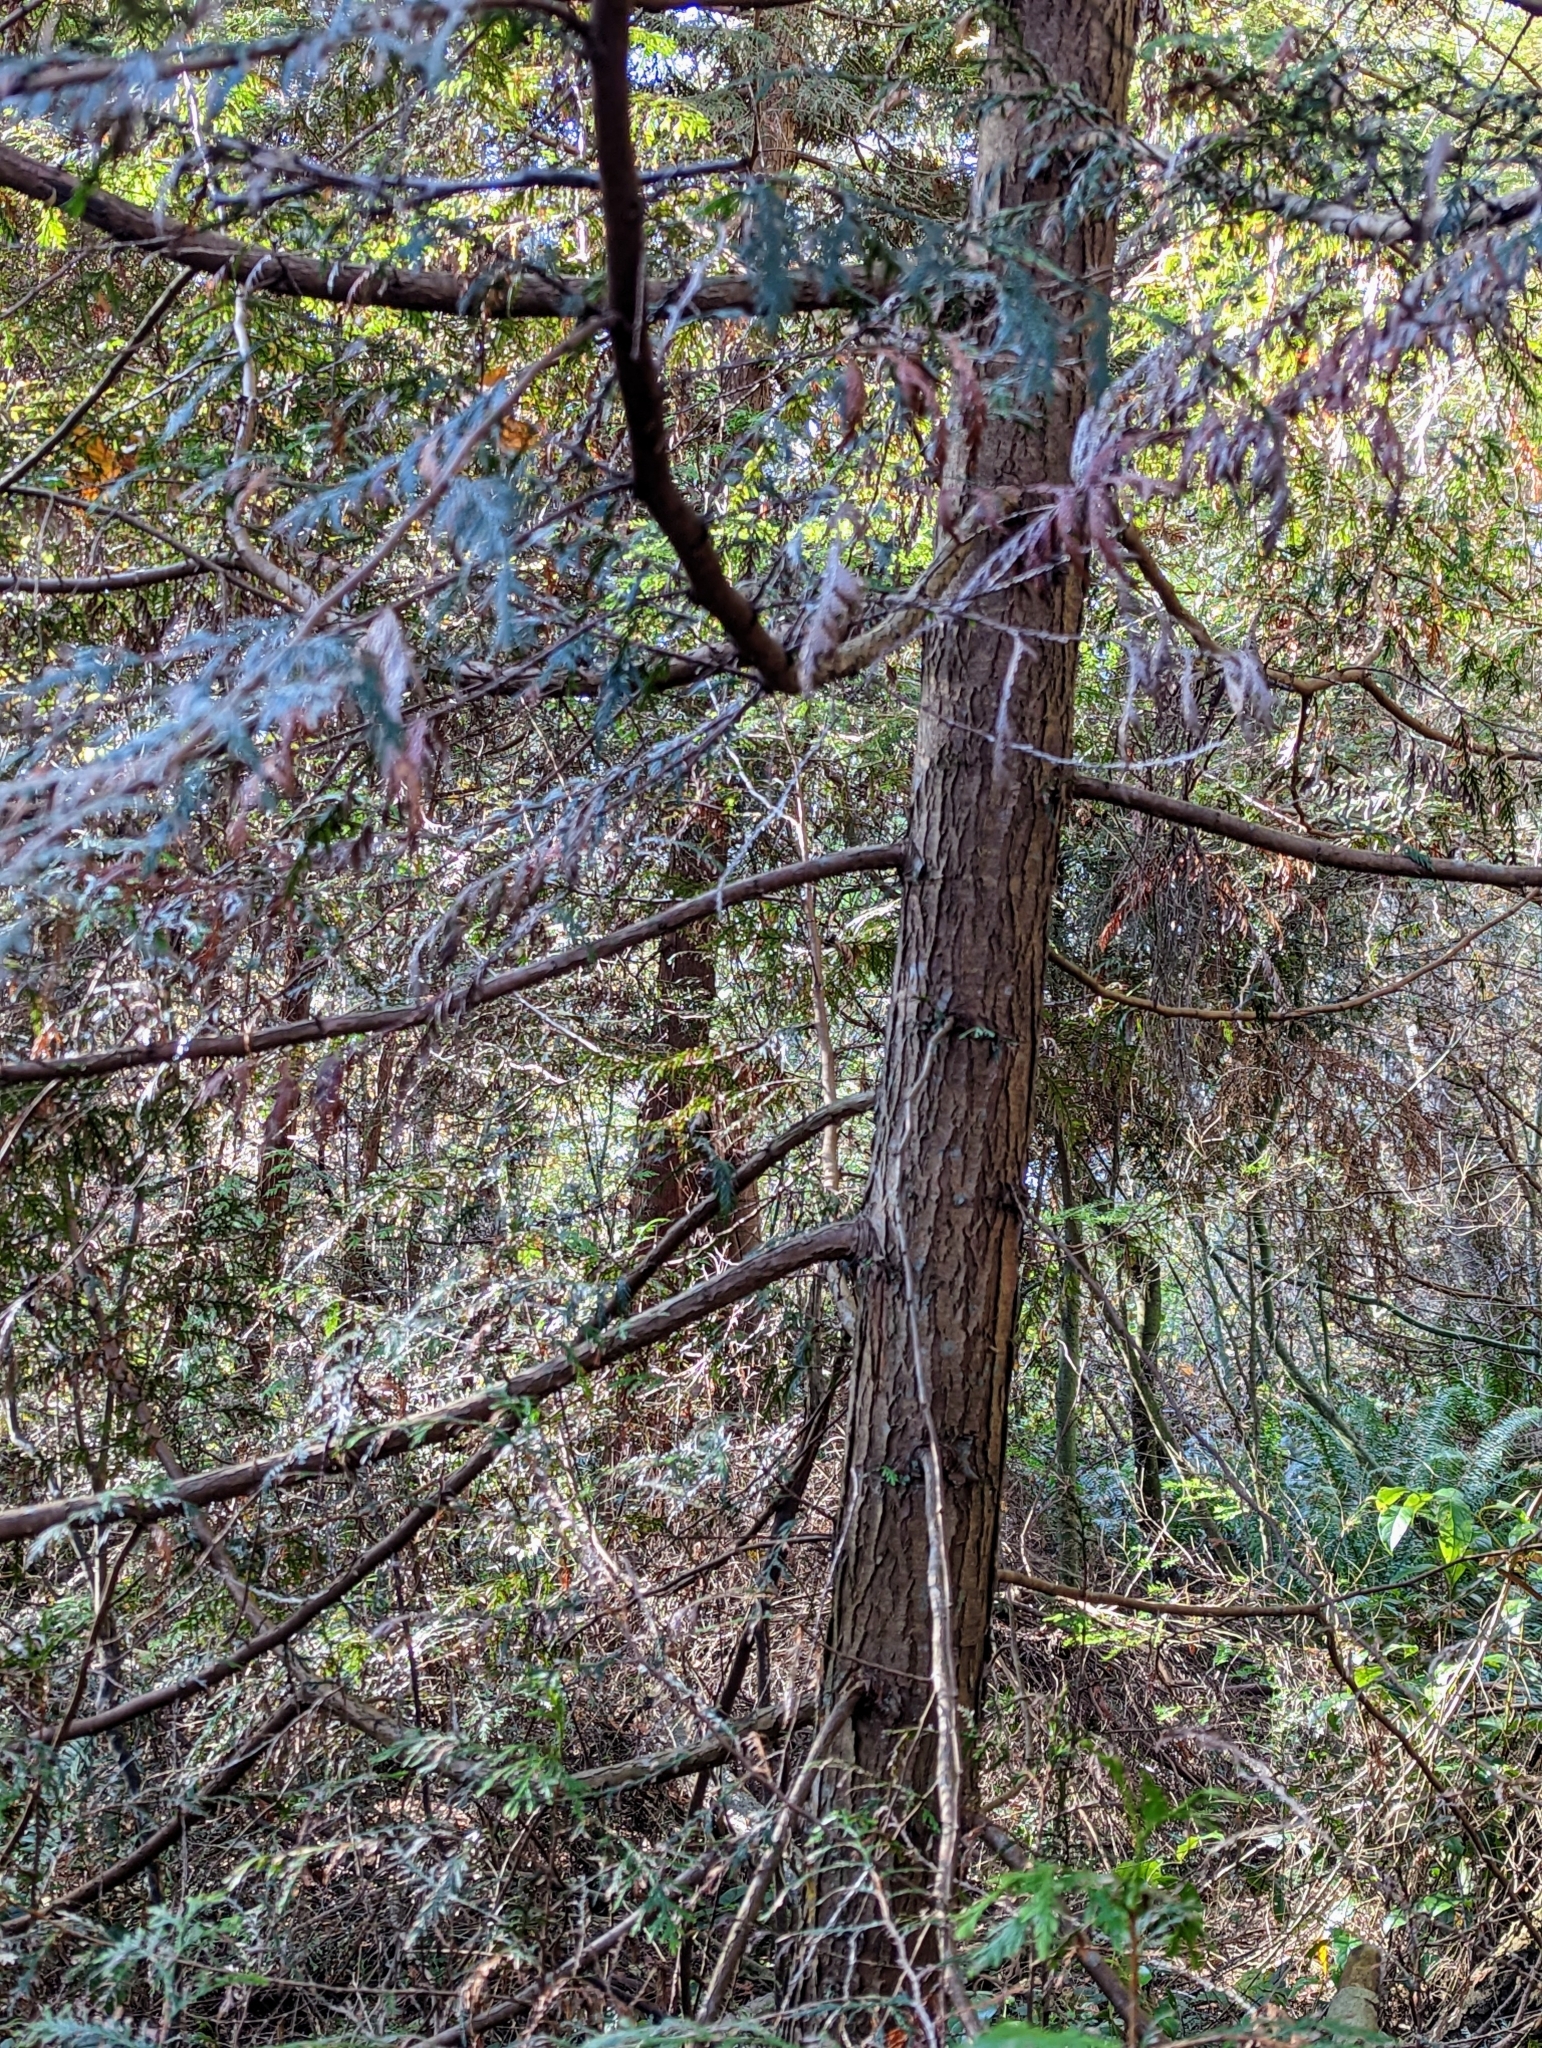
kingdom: Plantae
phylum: Tracheophyta
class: Pinopsida
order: Pinales
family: Cupressaceae
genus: Thuja
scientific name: Thuja plicata
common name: Western red-cedar
